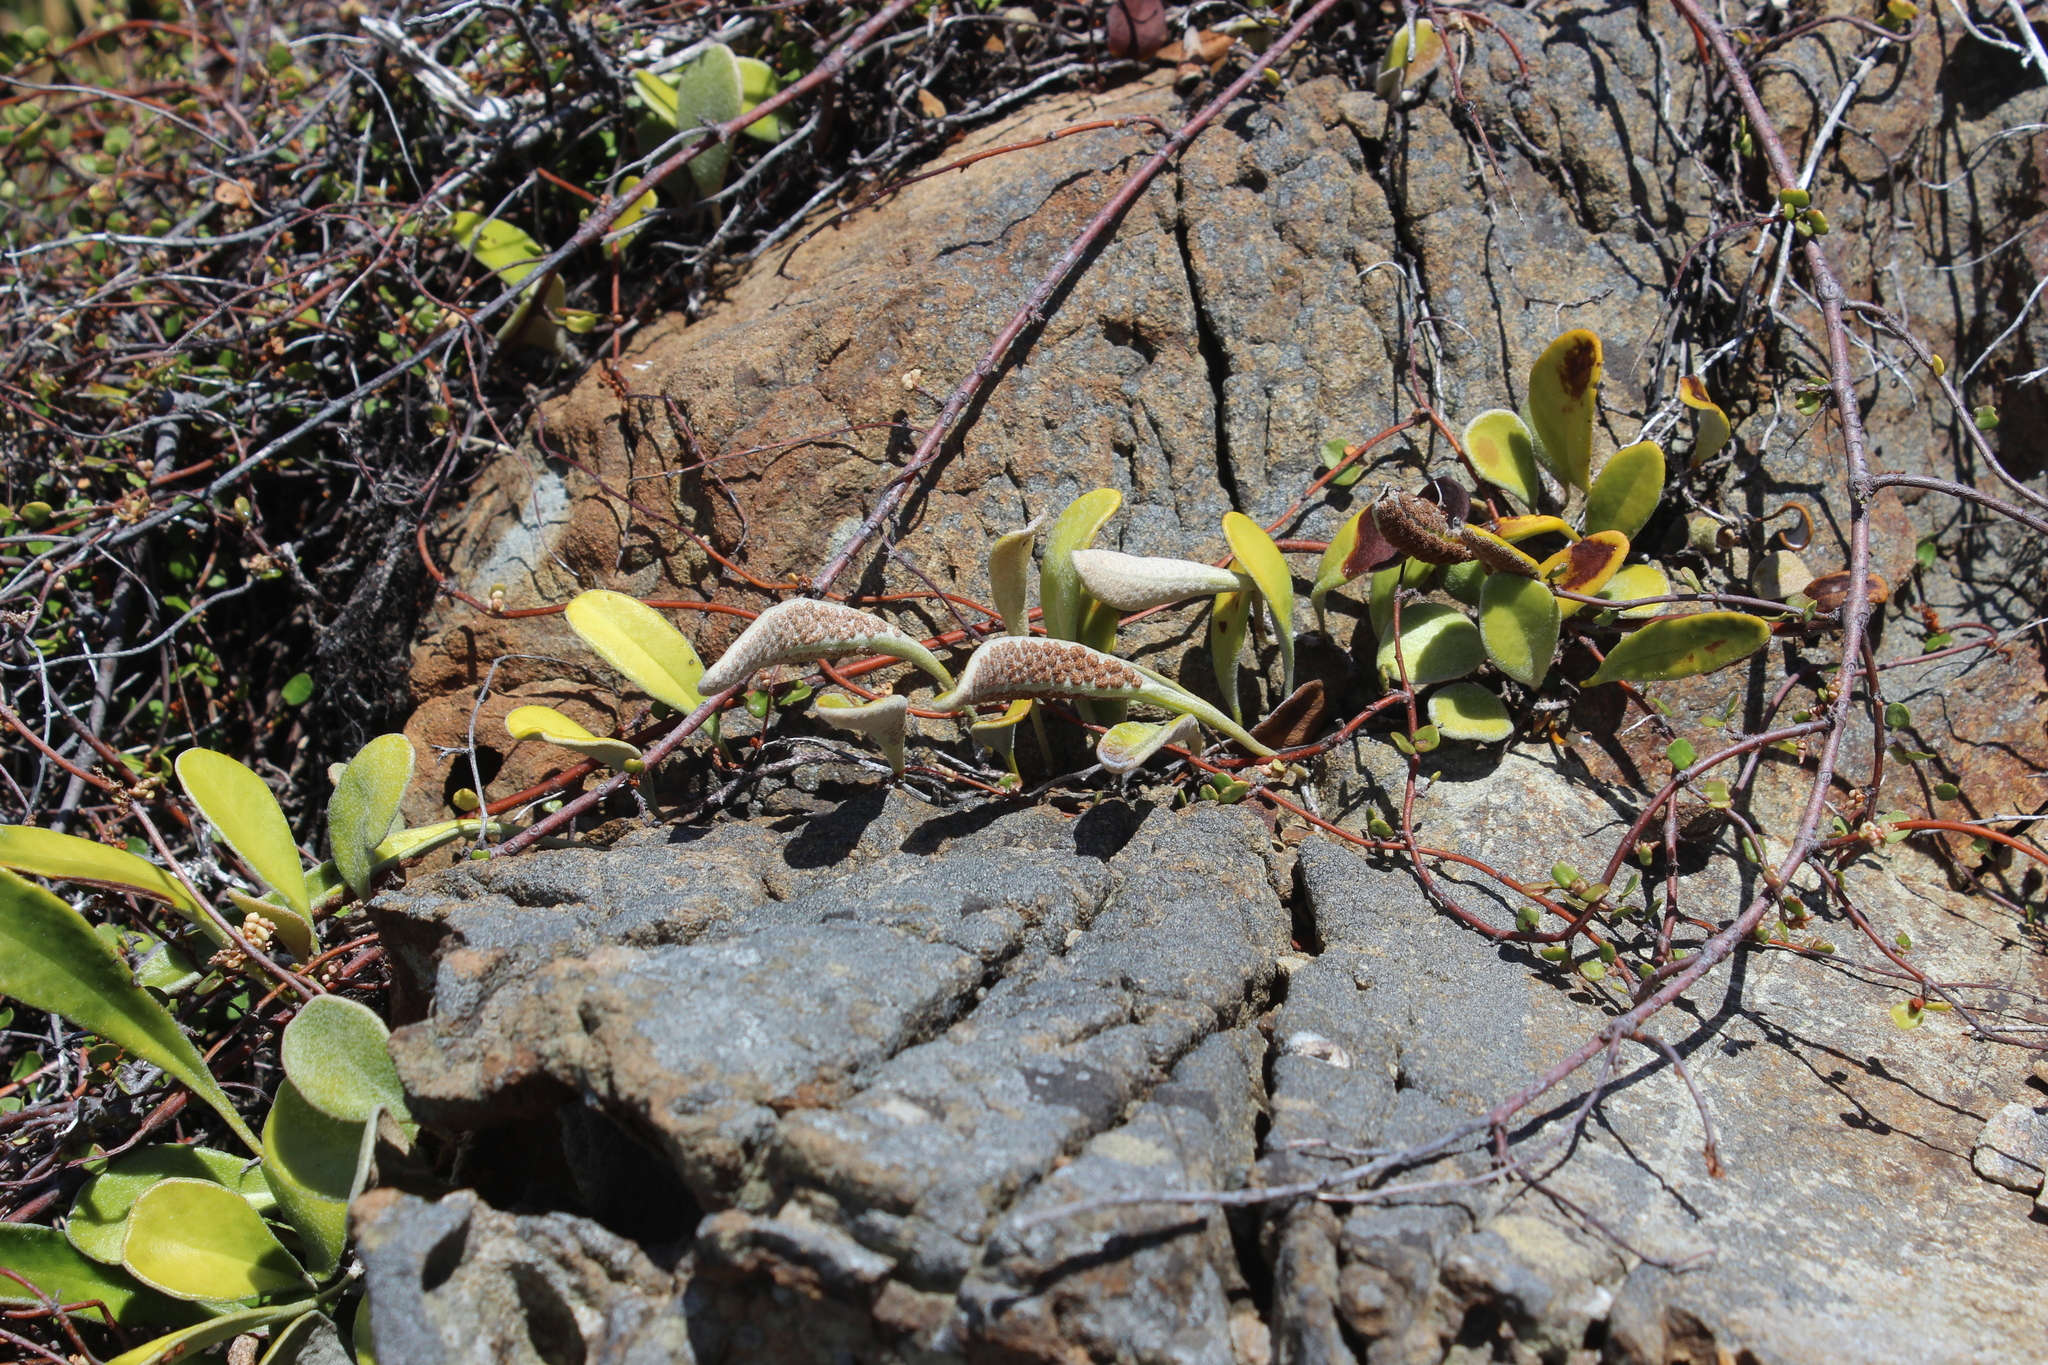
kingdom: Plantae
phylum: Tracheophyta
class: Polypodiopsida
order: Polypodiales
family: Polypodiaceae
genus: Pyrrosia
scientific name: Pyrrosia eleagnifolia
